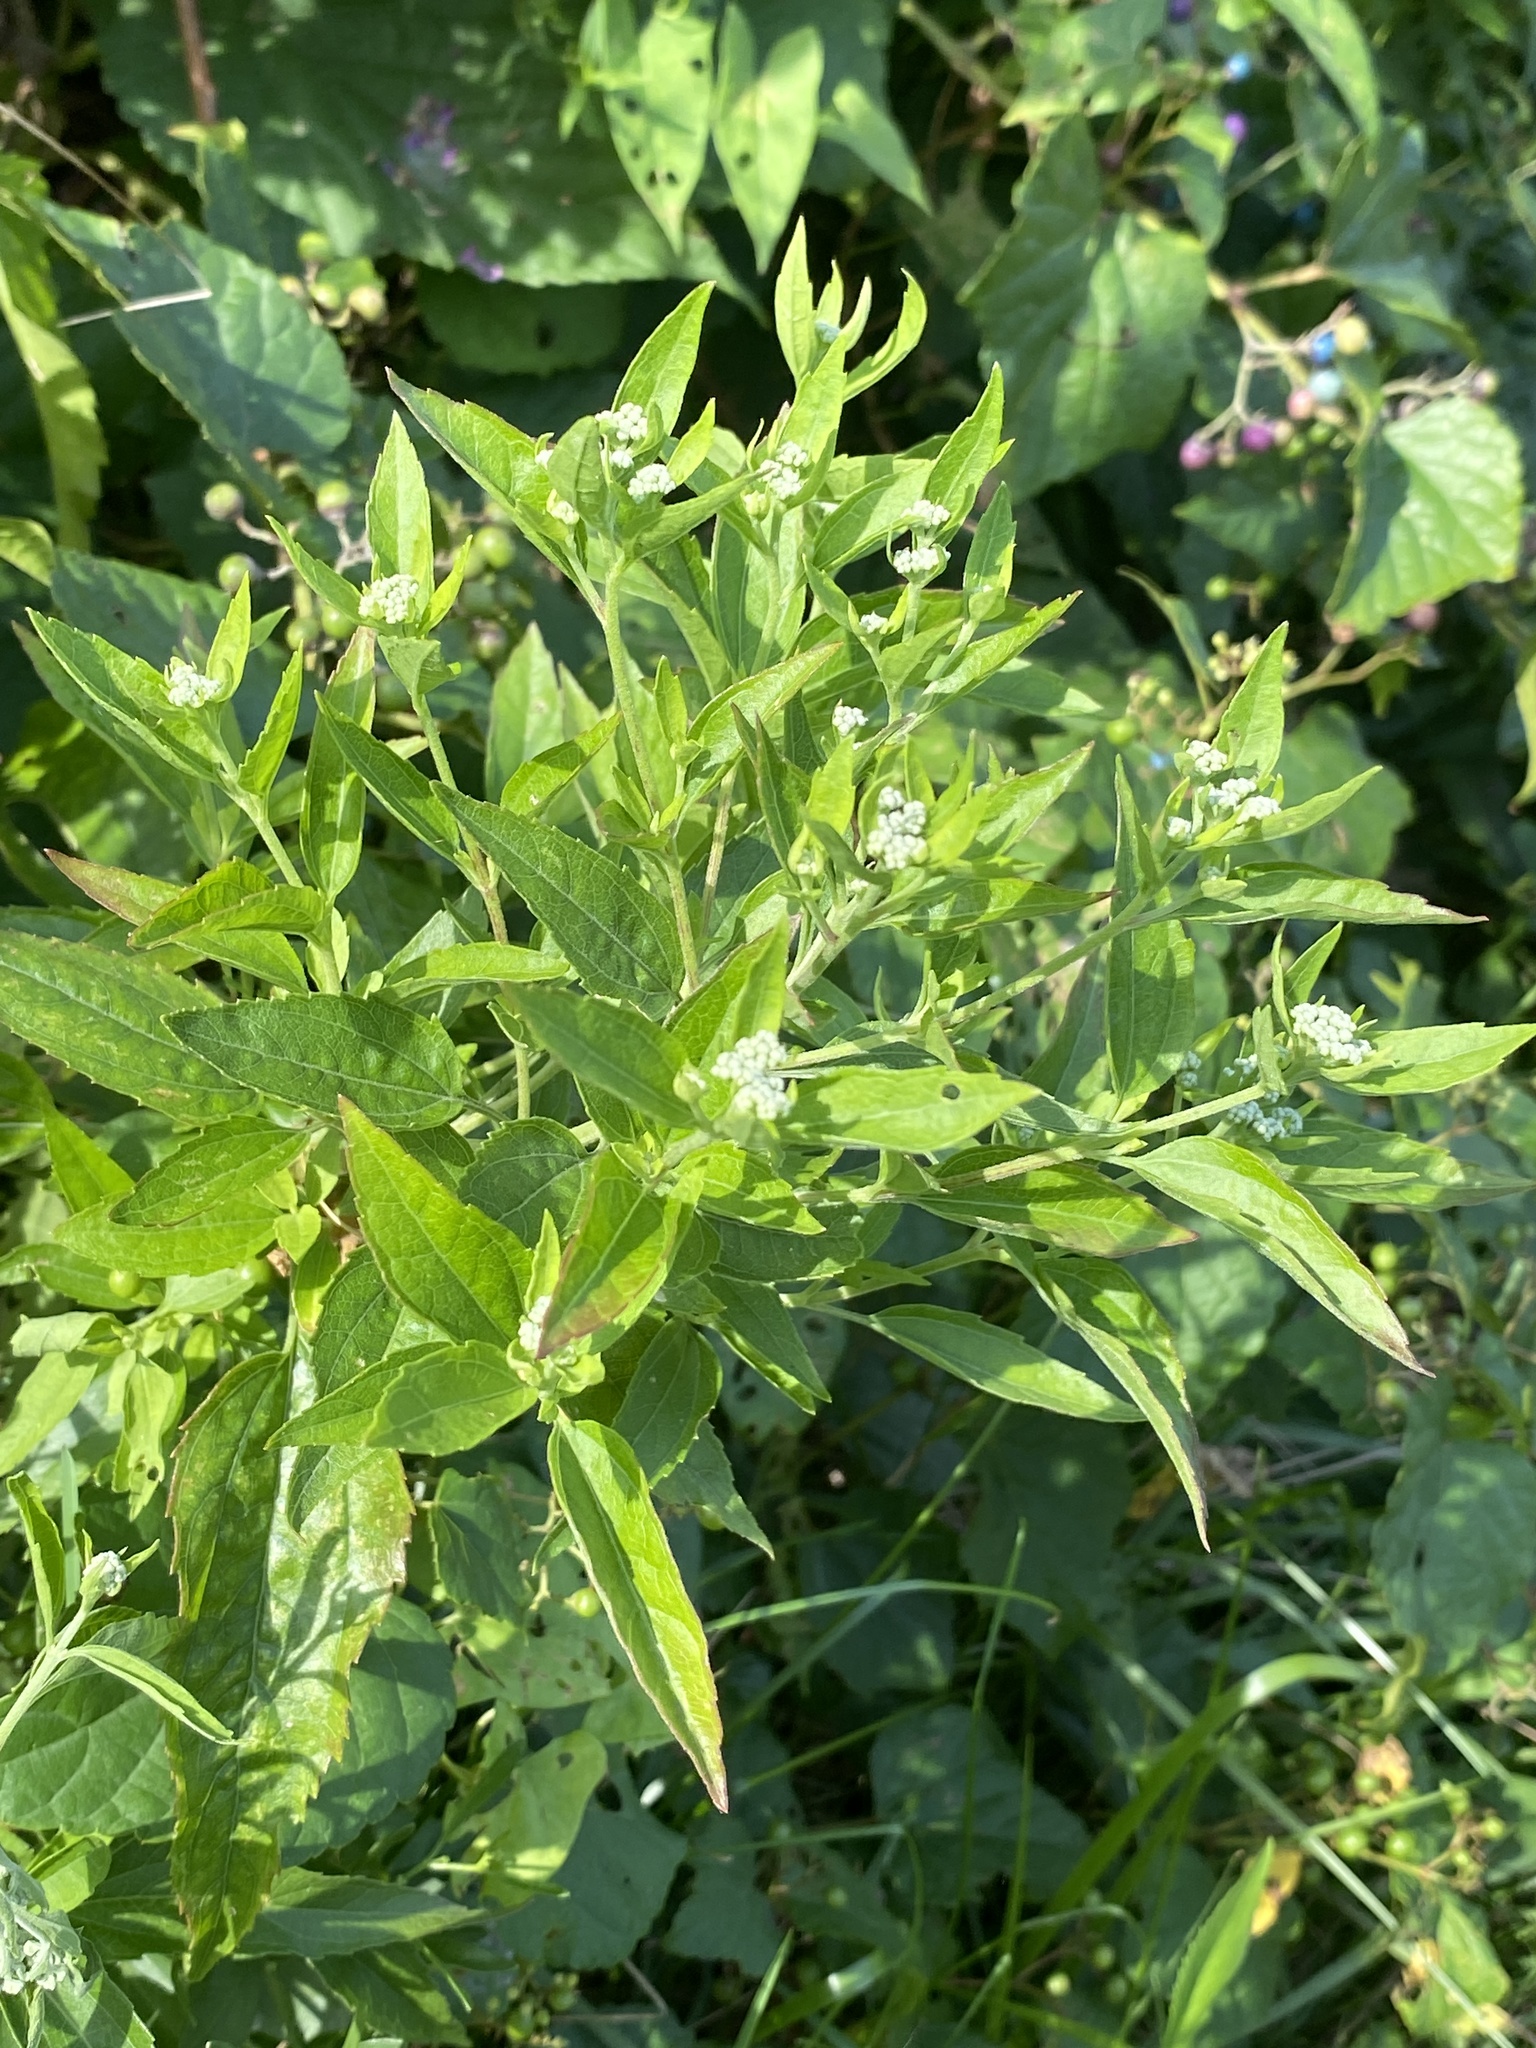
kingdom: Plantae
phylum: Tracheophyta
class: Magnoliopsida
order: Asterales
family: Asteraceae
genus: Eupatorium
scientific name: Eupatorium serotinum
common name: Late boneset
